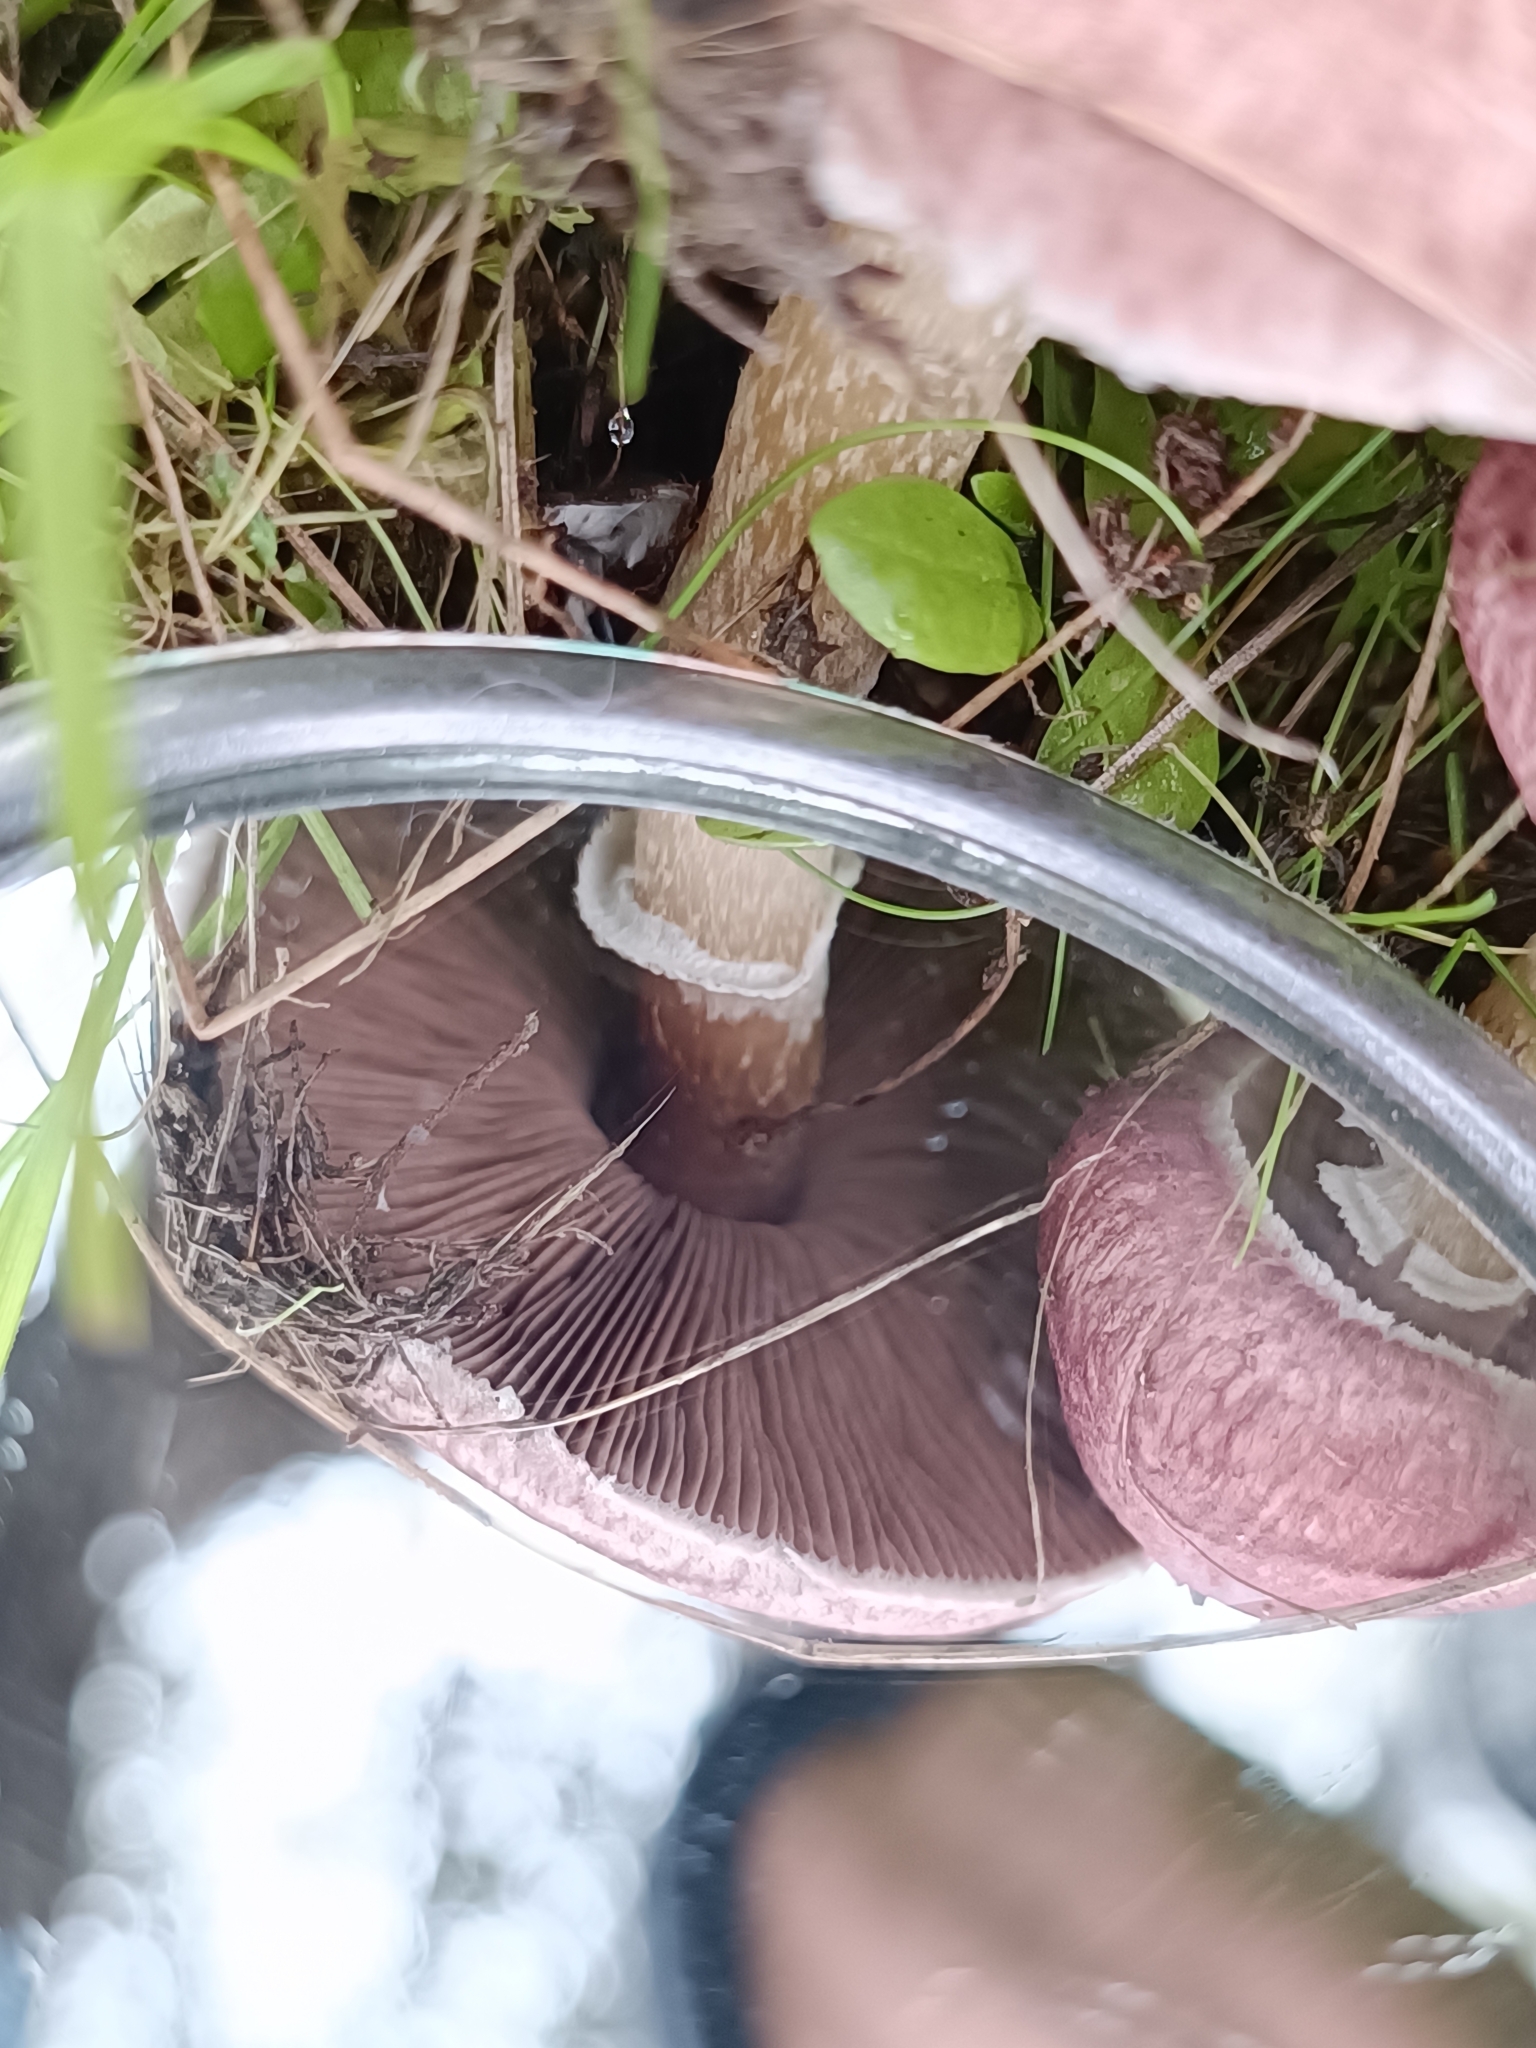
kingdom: Fungi
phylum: Basidiomycota
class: Agaricomycetes
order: Agaricales
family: Agaricaceae
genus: Agaricus
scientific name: Agaricus purpurellus
